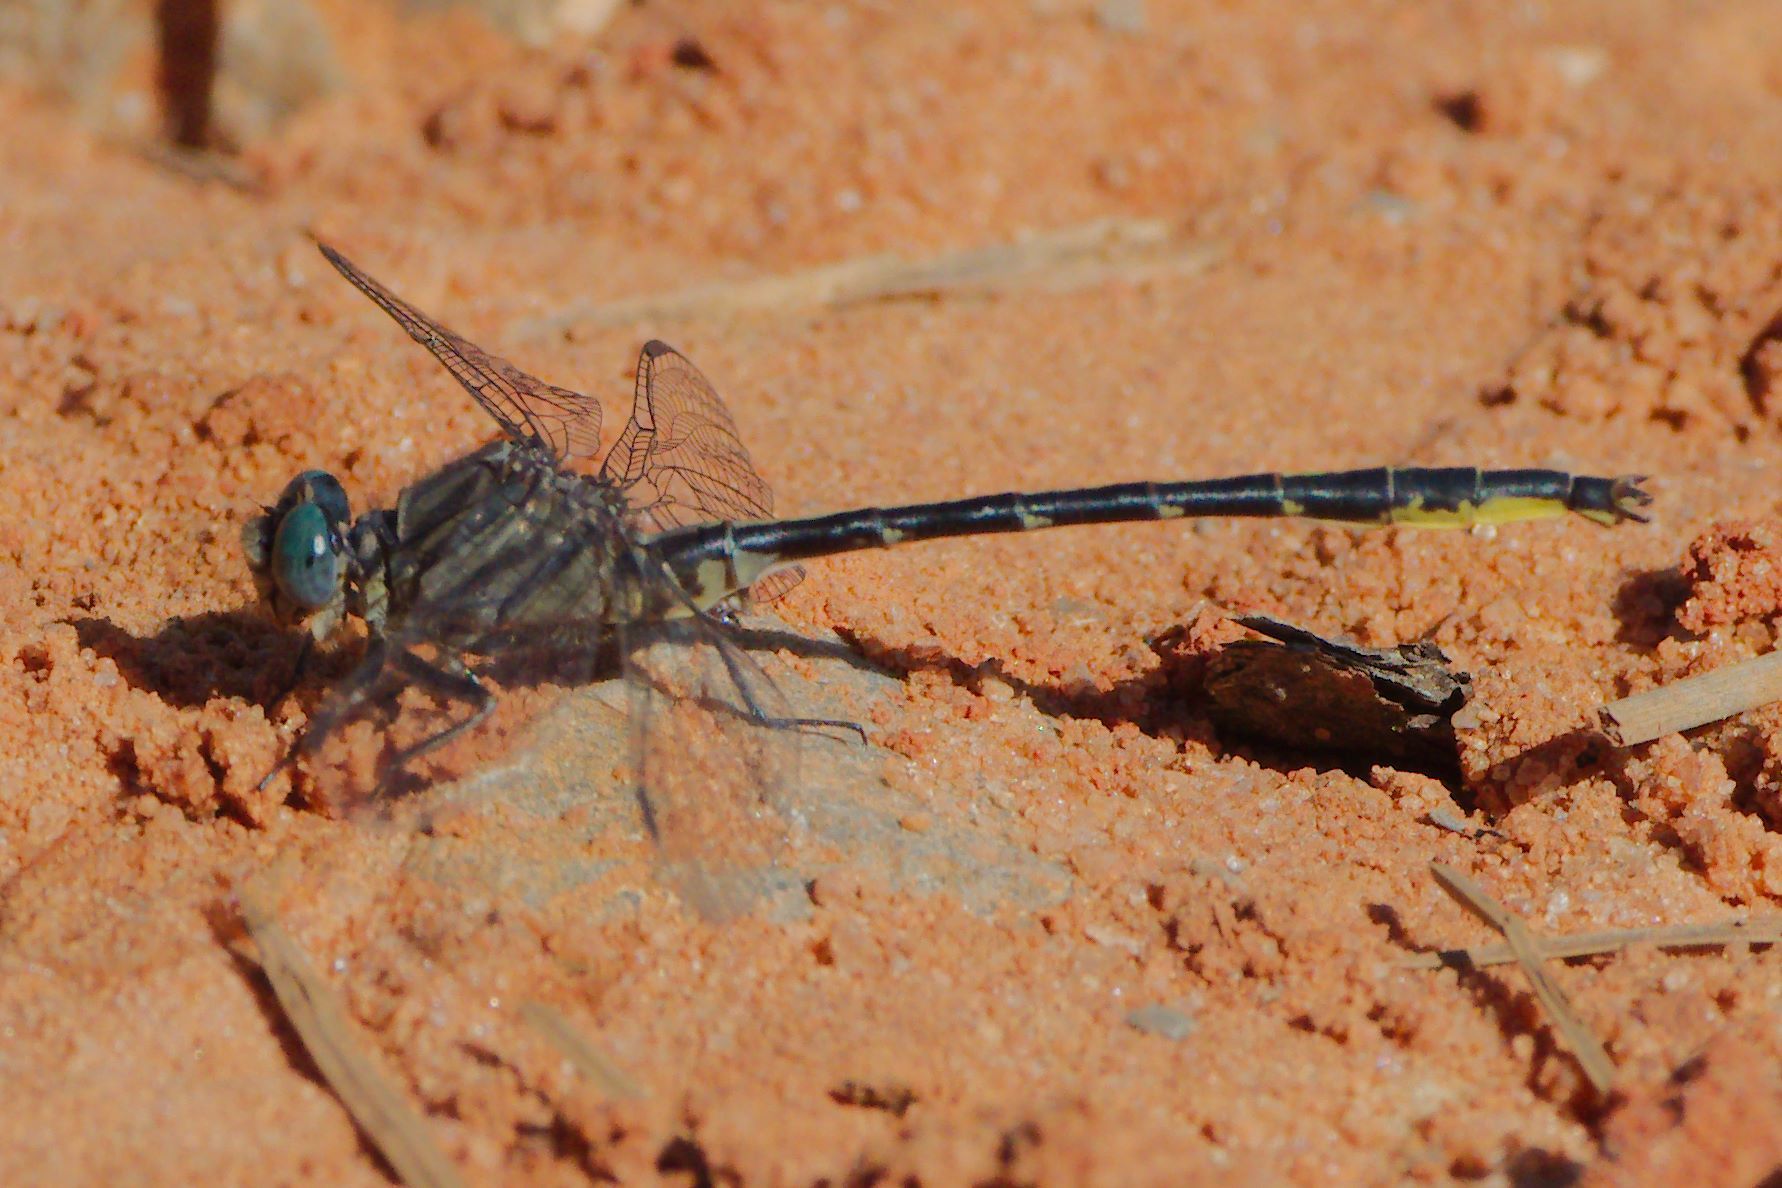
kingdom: Animalia
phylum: Arthropoda
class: Insecta
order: Odonata
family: Gomphidae
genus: Phanogomphus
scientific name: Phanogomphus westfalli
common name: Westfall’s clubtail
